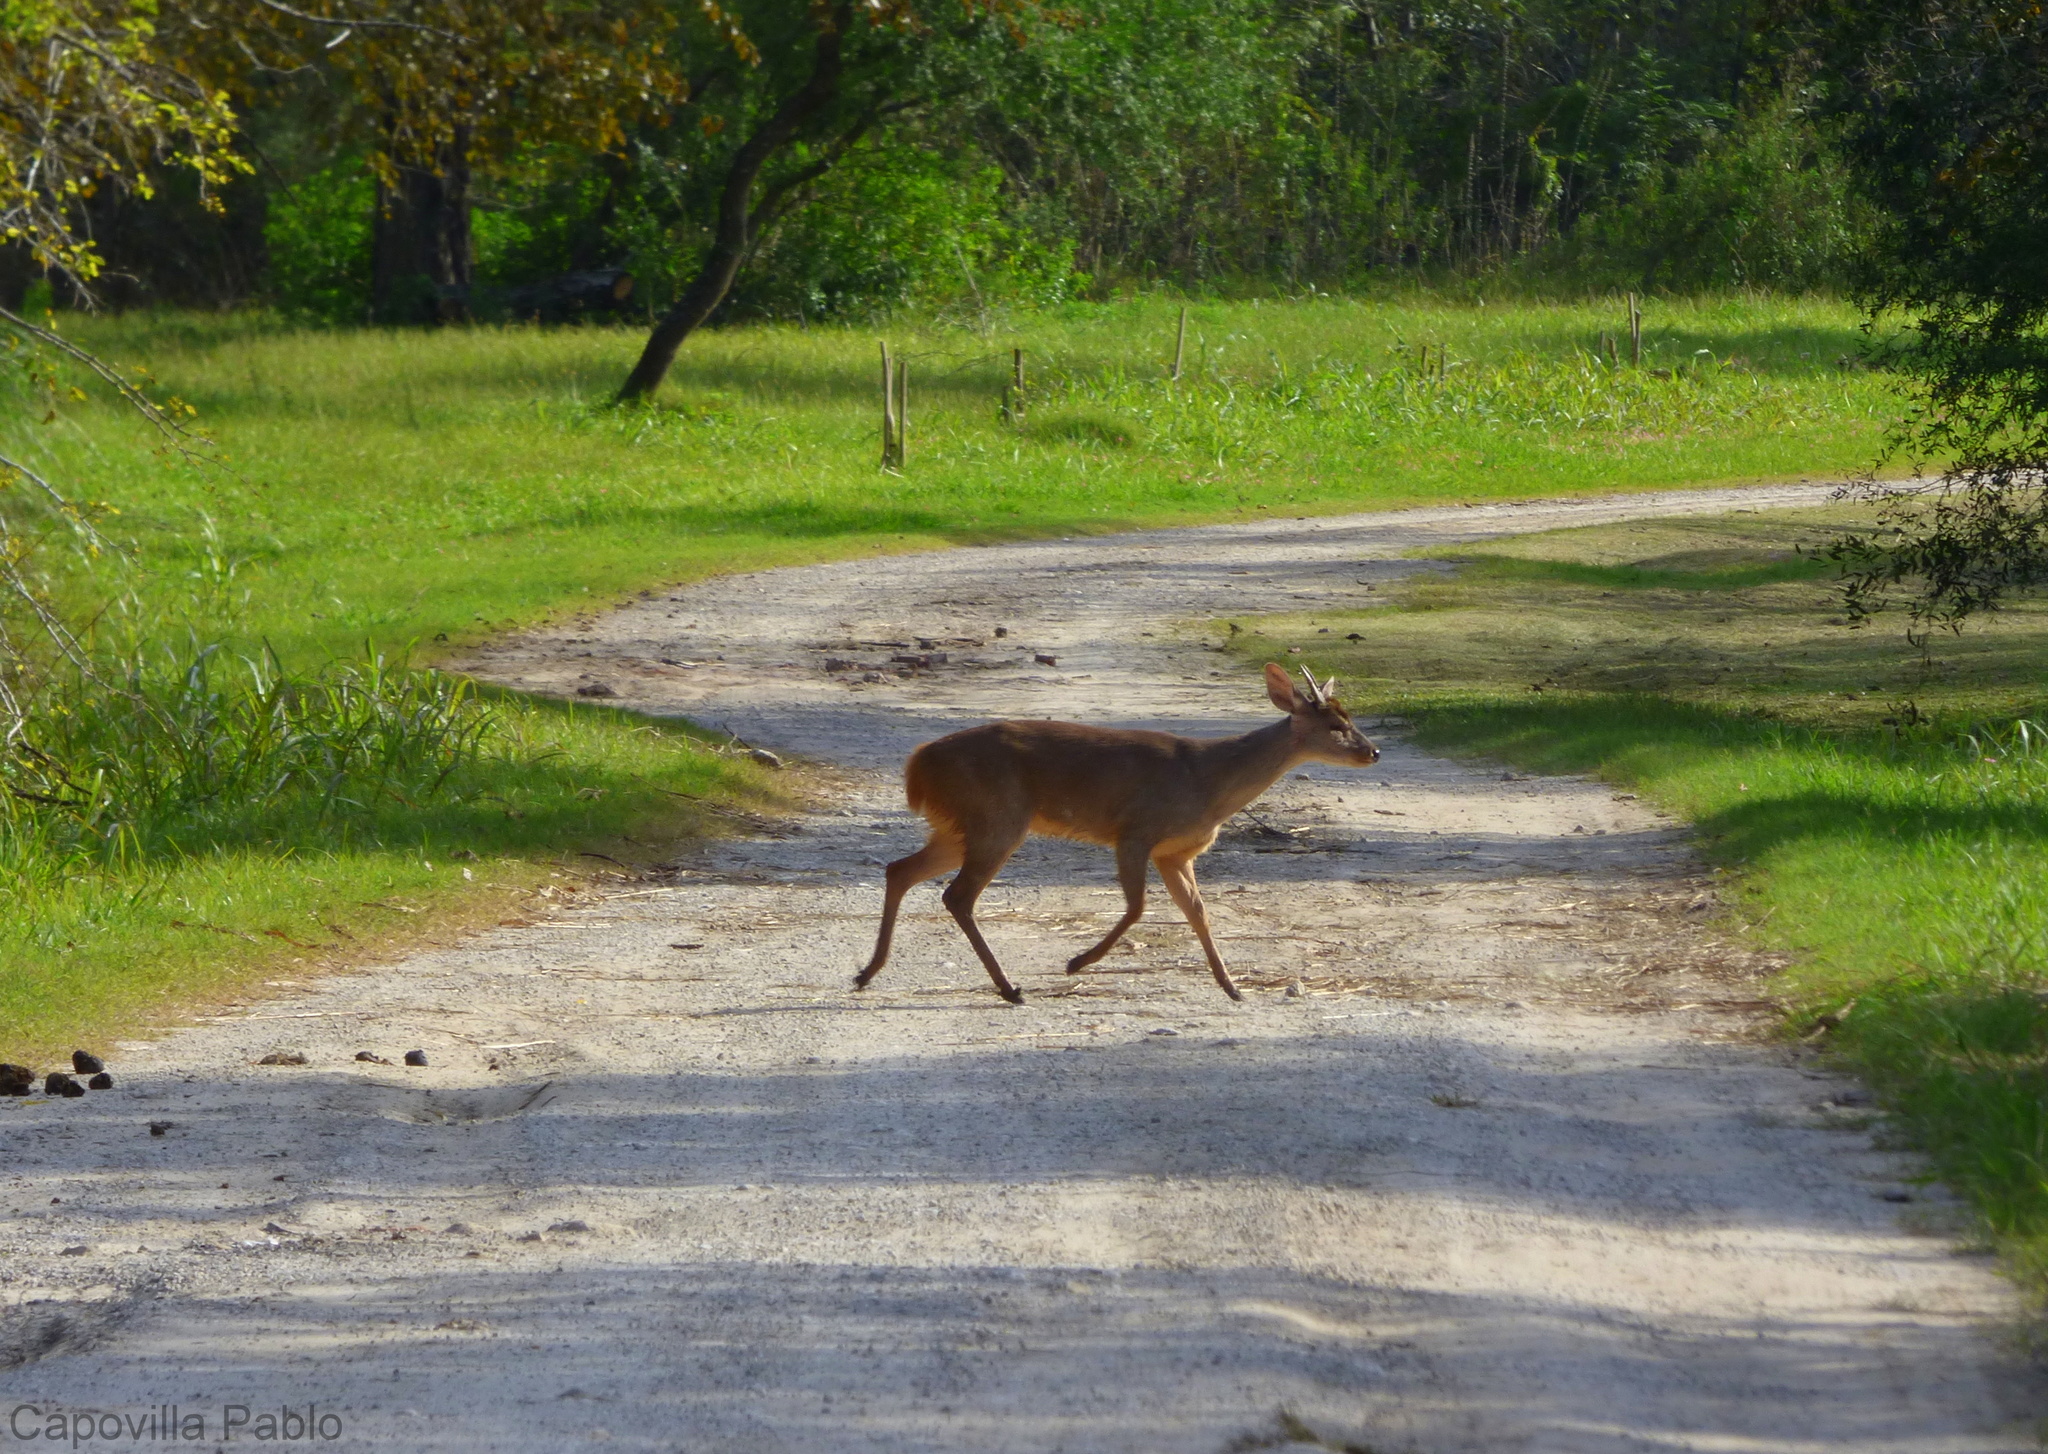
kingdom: Animalia
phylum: Chordata
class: Mammalia
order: Artiodactyla
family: Cervidae
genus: Mazama
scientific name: Mazama gouazoubira
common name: Gray brocket
